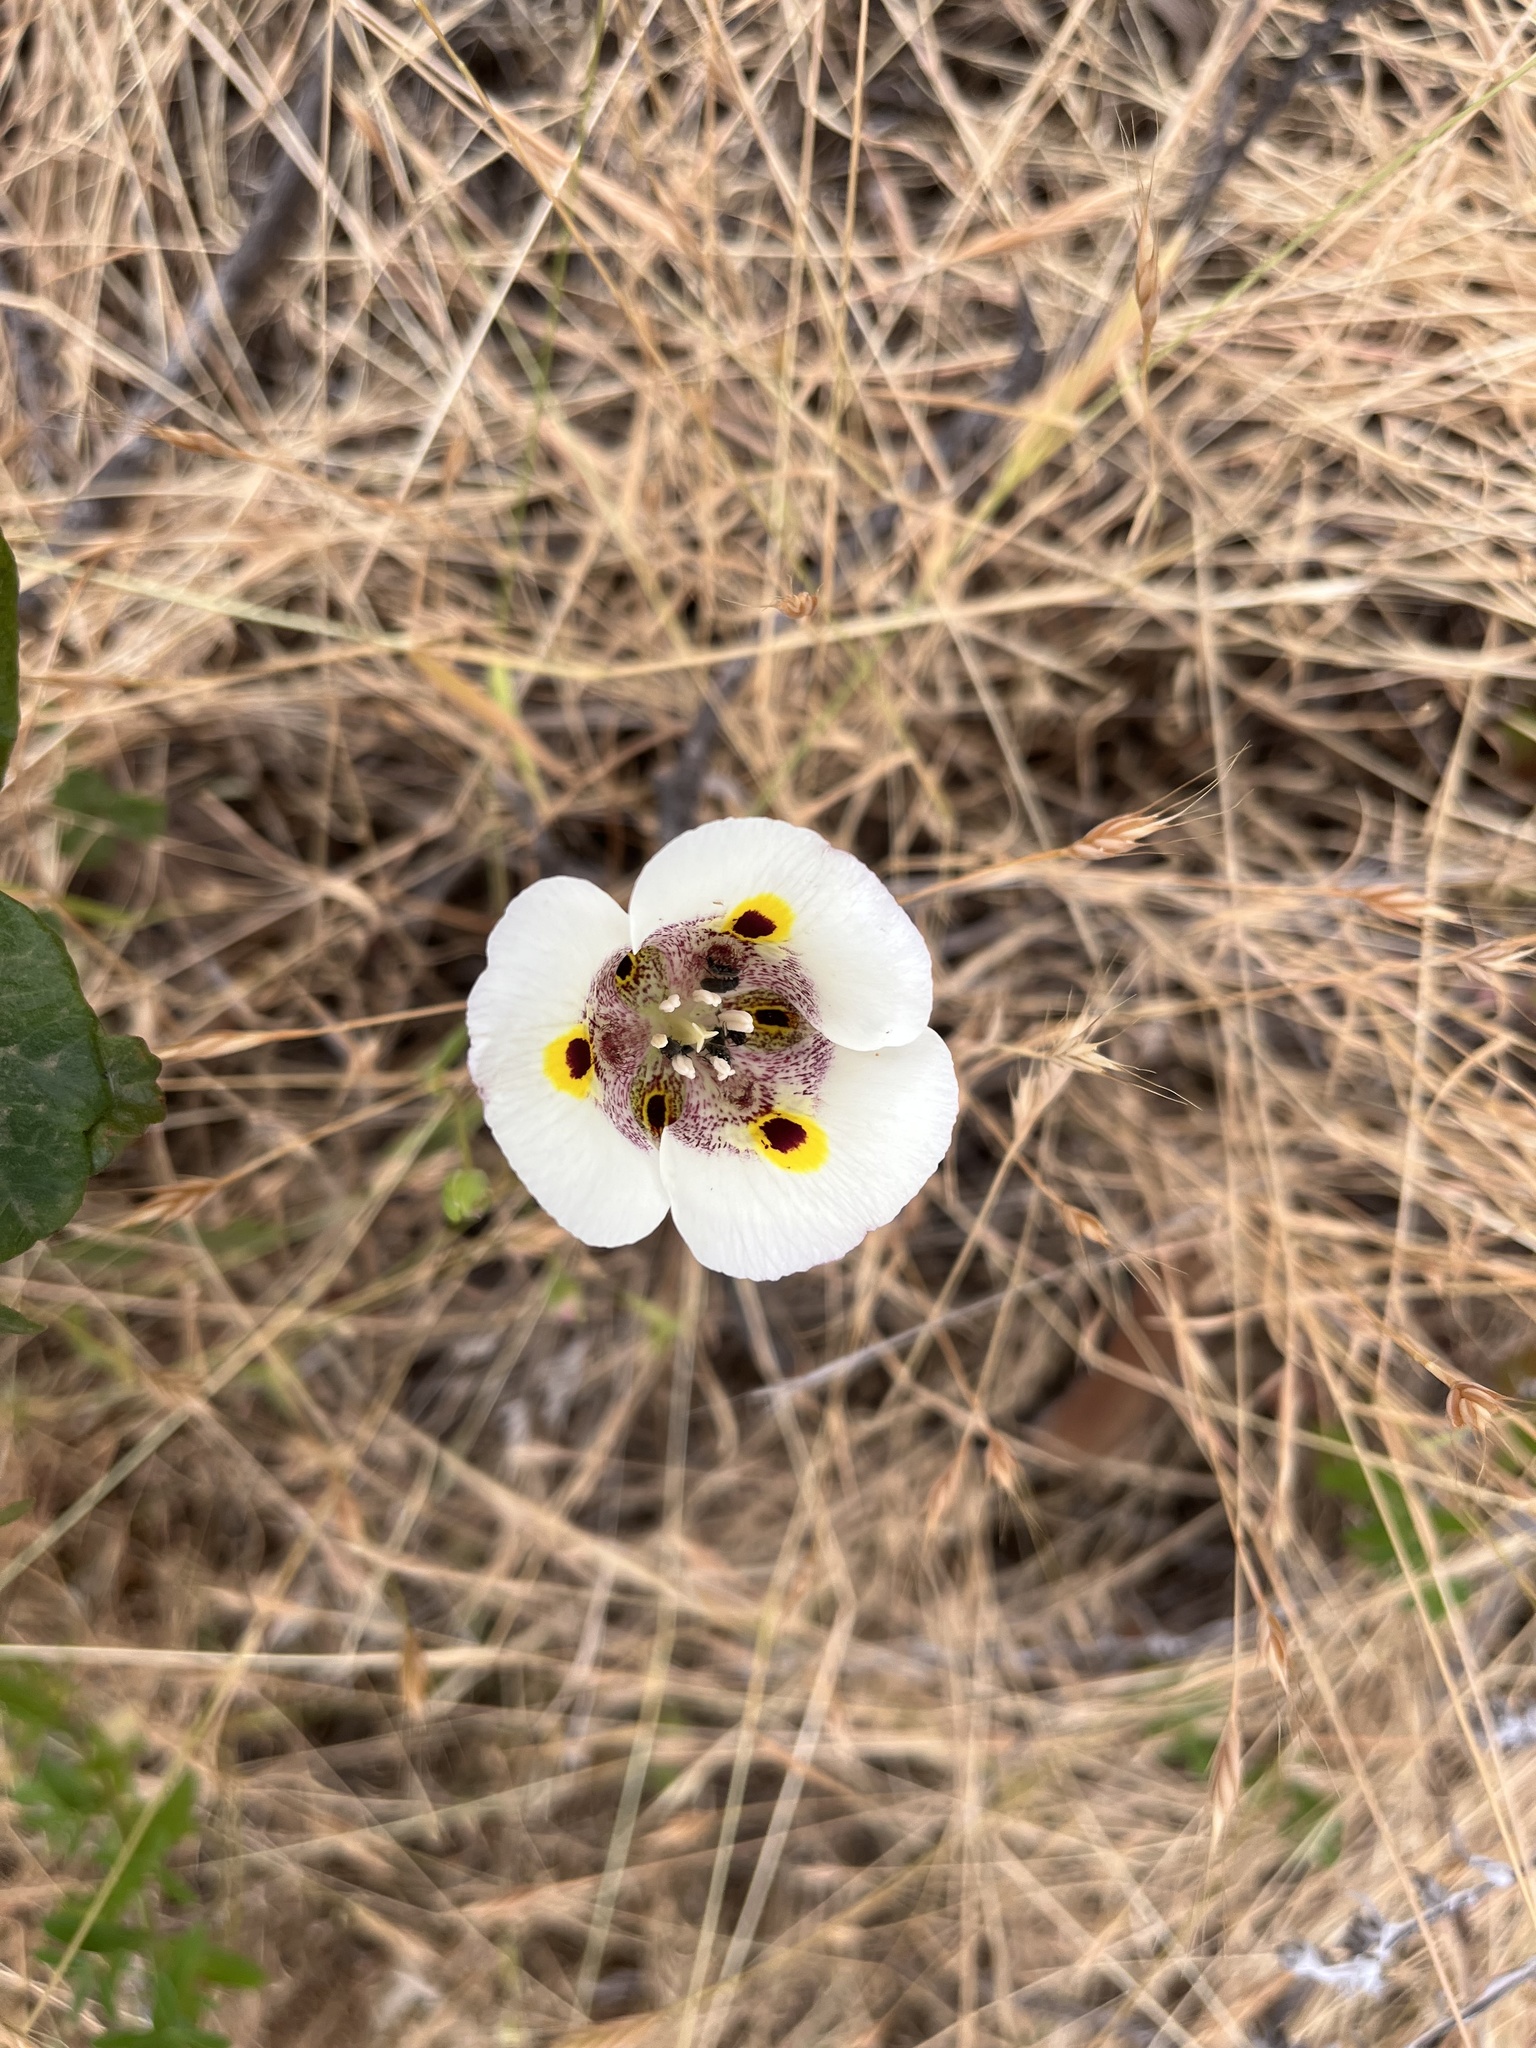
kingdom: Plantae
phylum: Tracheophyta
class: Liliopsida
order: Liliales
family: Liliaceae
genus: Calochortus
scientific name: Calochortus superbus
